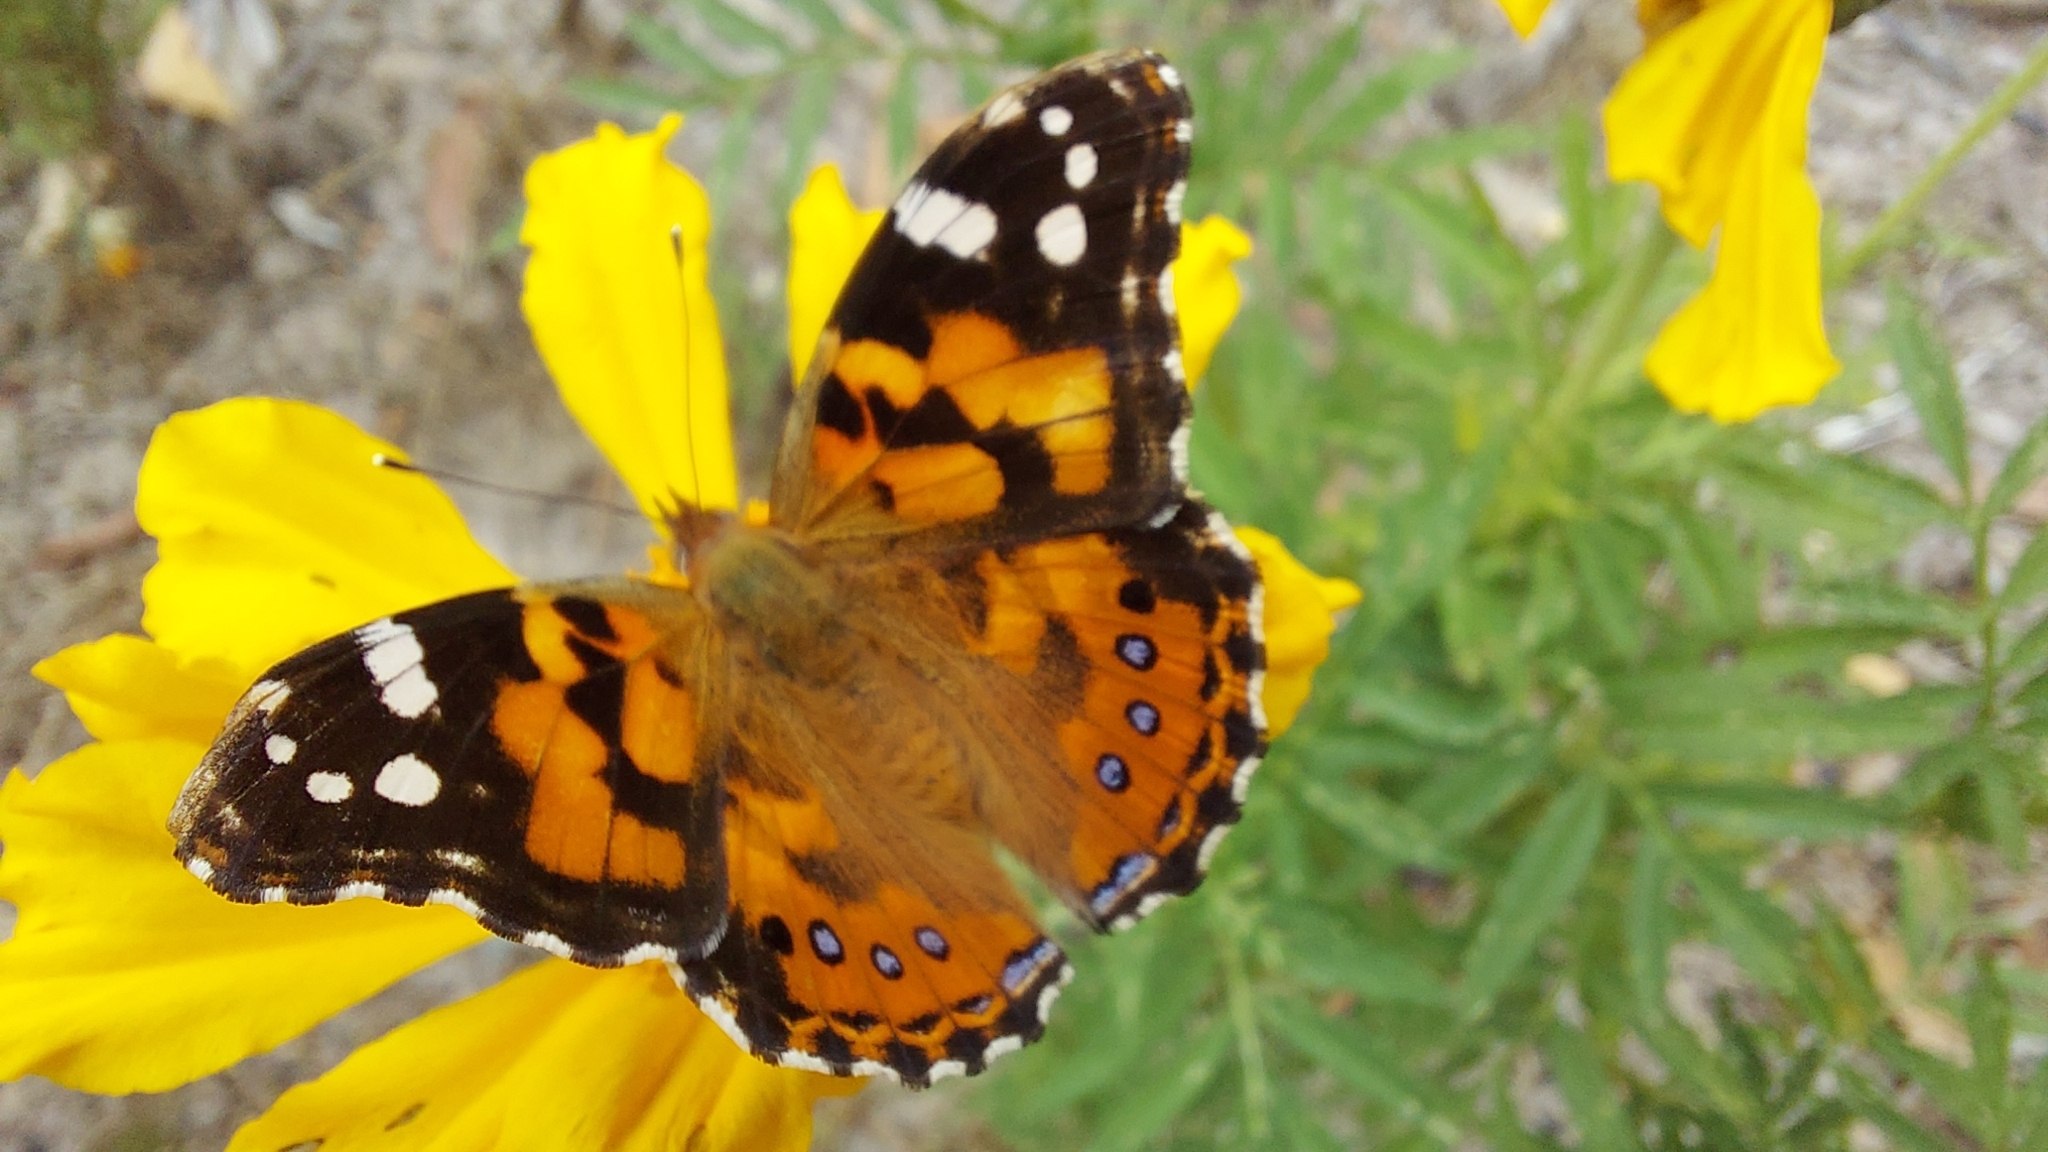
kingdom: Animalia
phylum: Arthropoda
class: Insecta
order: Lepidoptera
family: Nymphalidae
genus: Vanessa
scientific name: Vanessa kershawi
